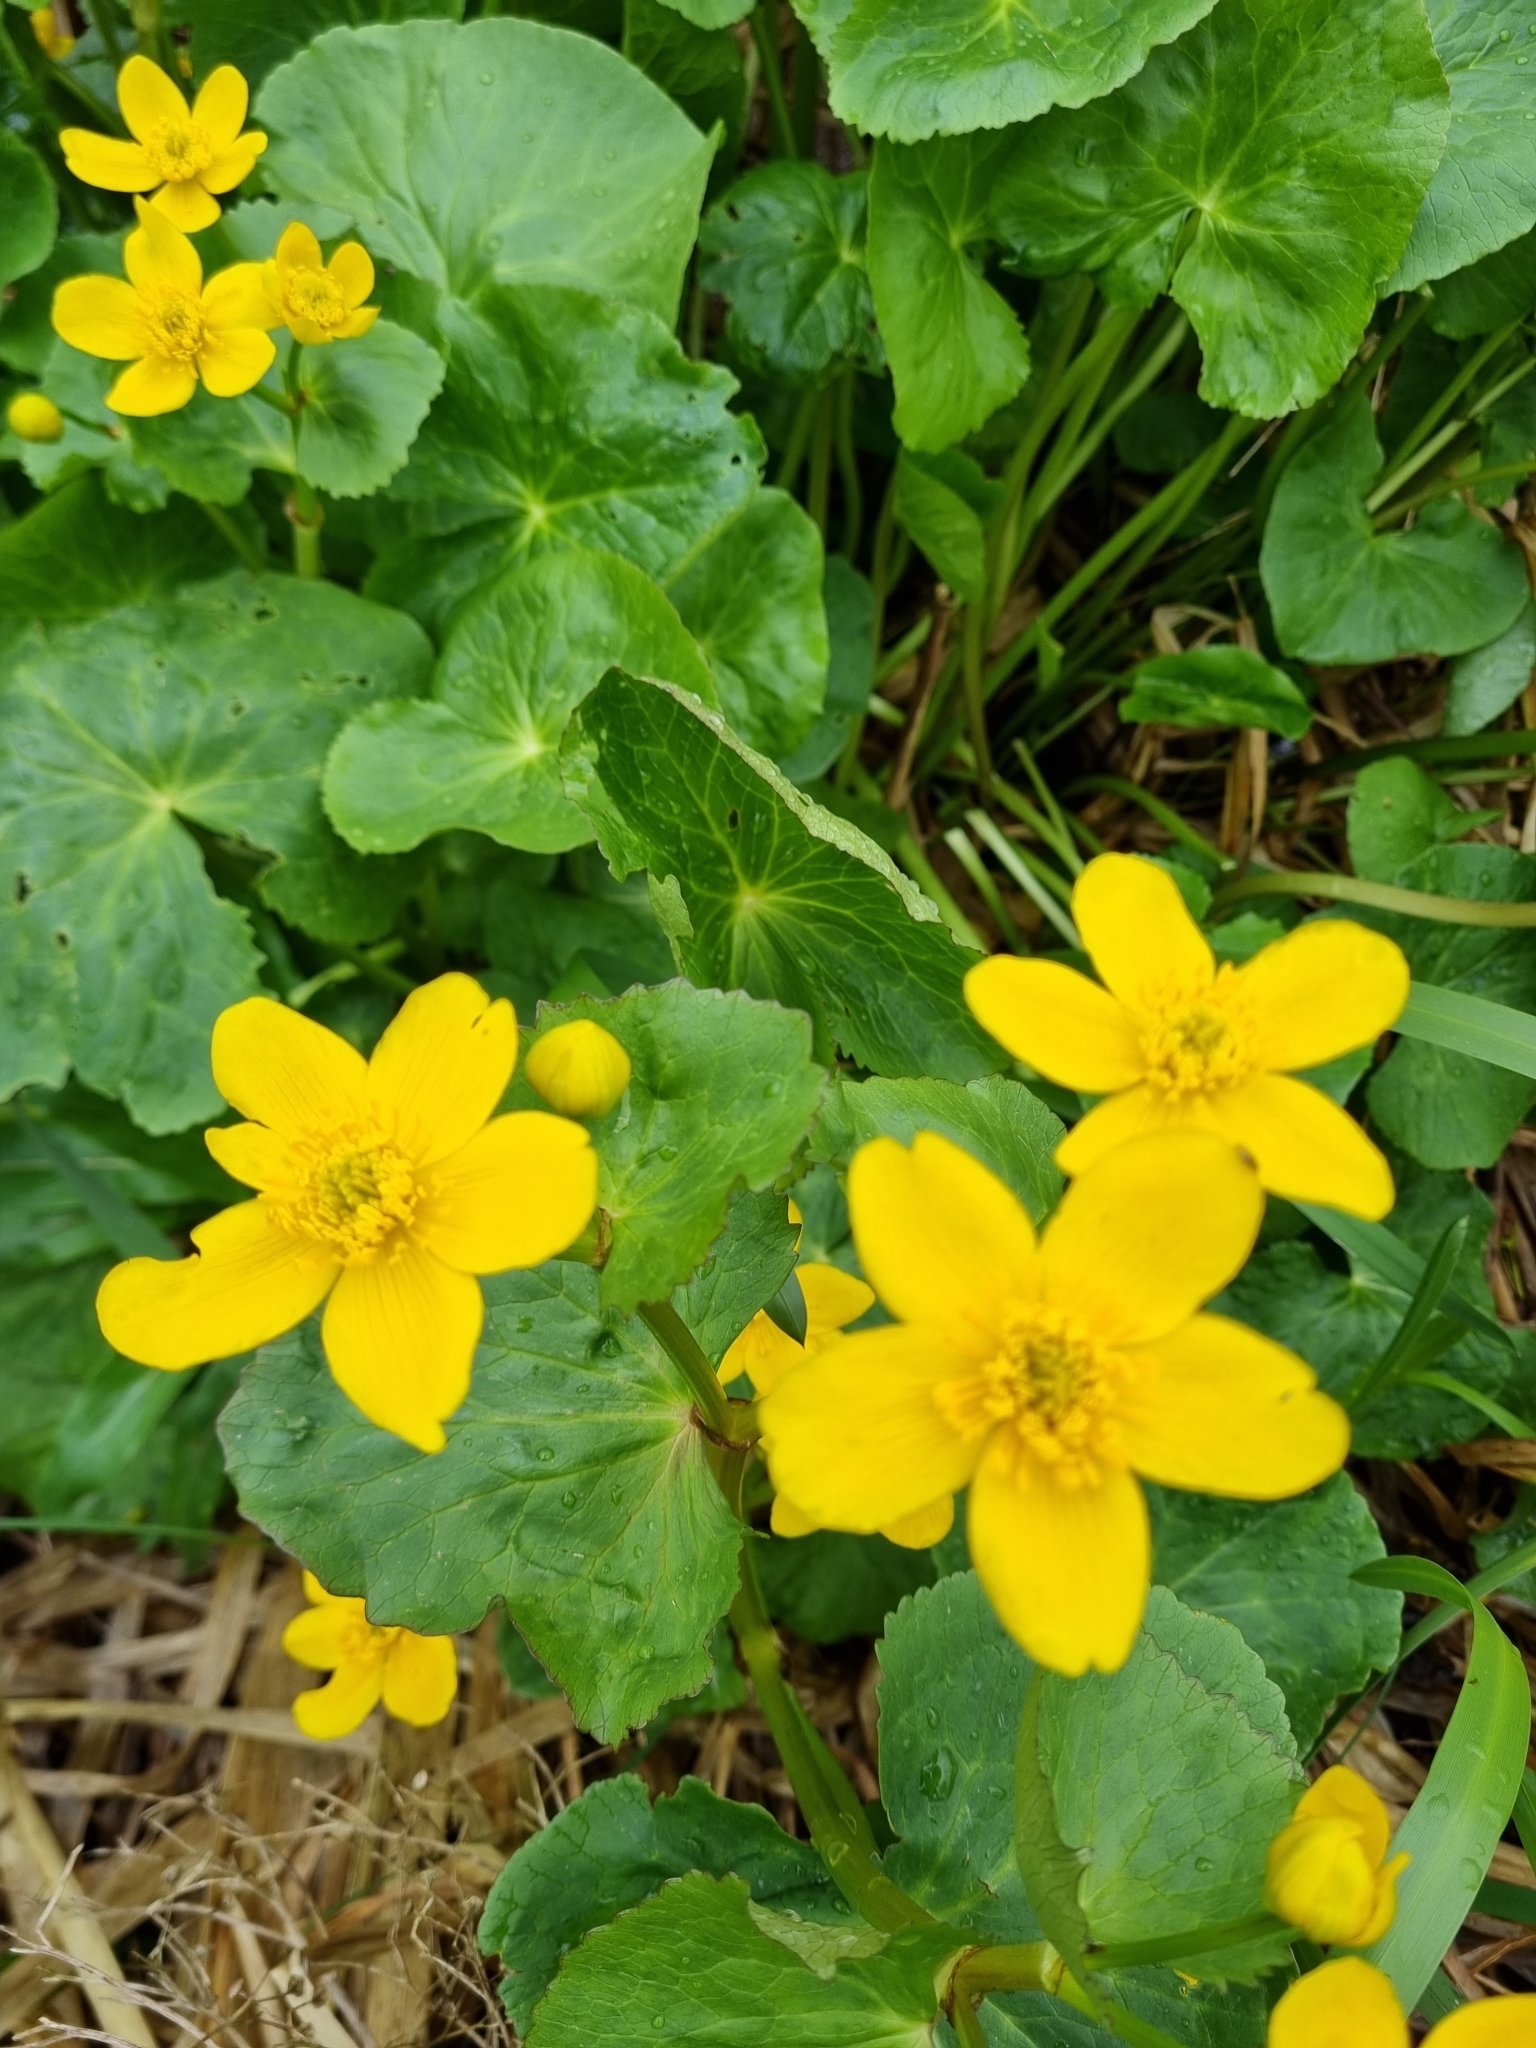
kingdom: Plantae
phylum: Tracheophyta
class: Magnoliopsida
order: Ranunculales
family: Ranunculaceae
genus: Caltha
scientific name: Caltha palustris
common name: Marsh marigold
